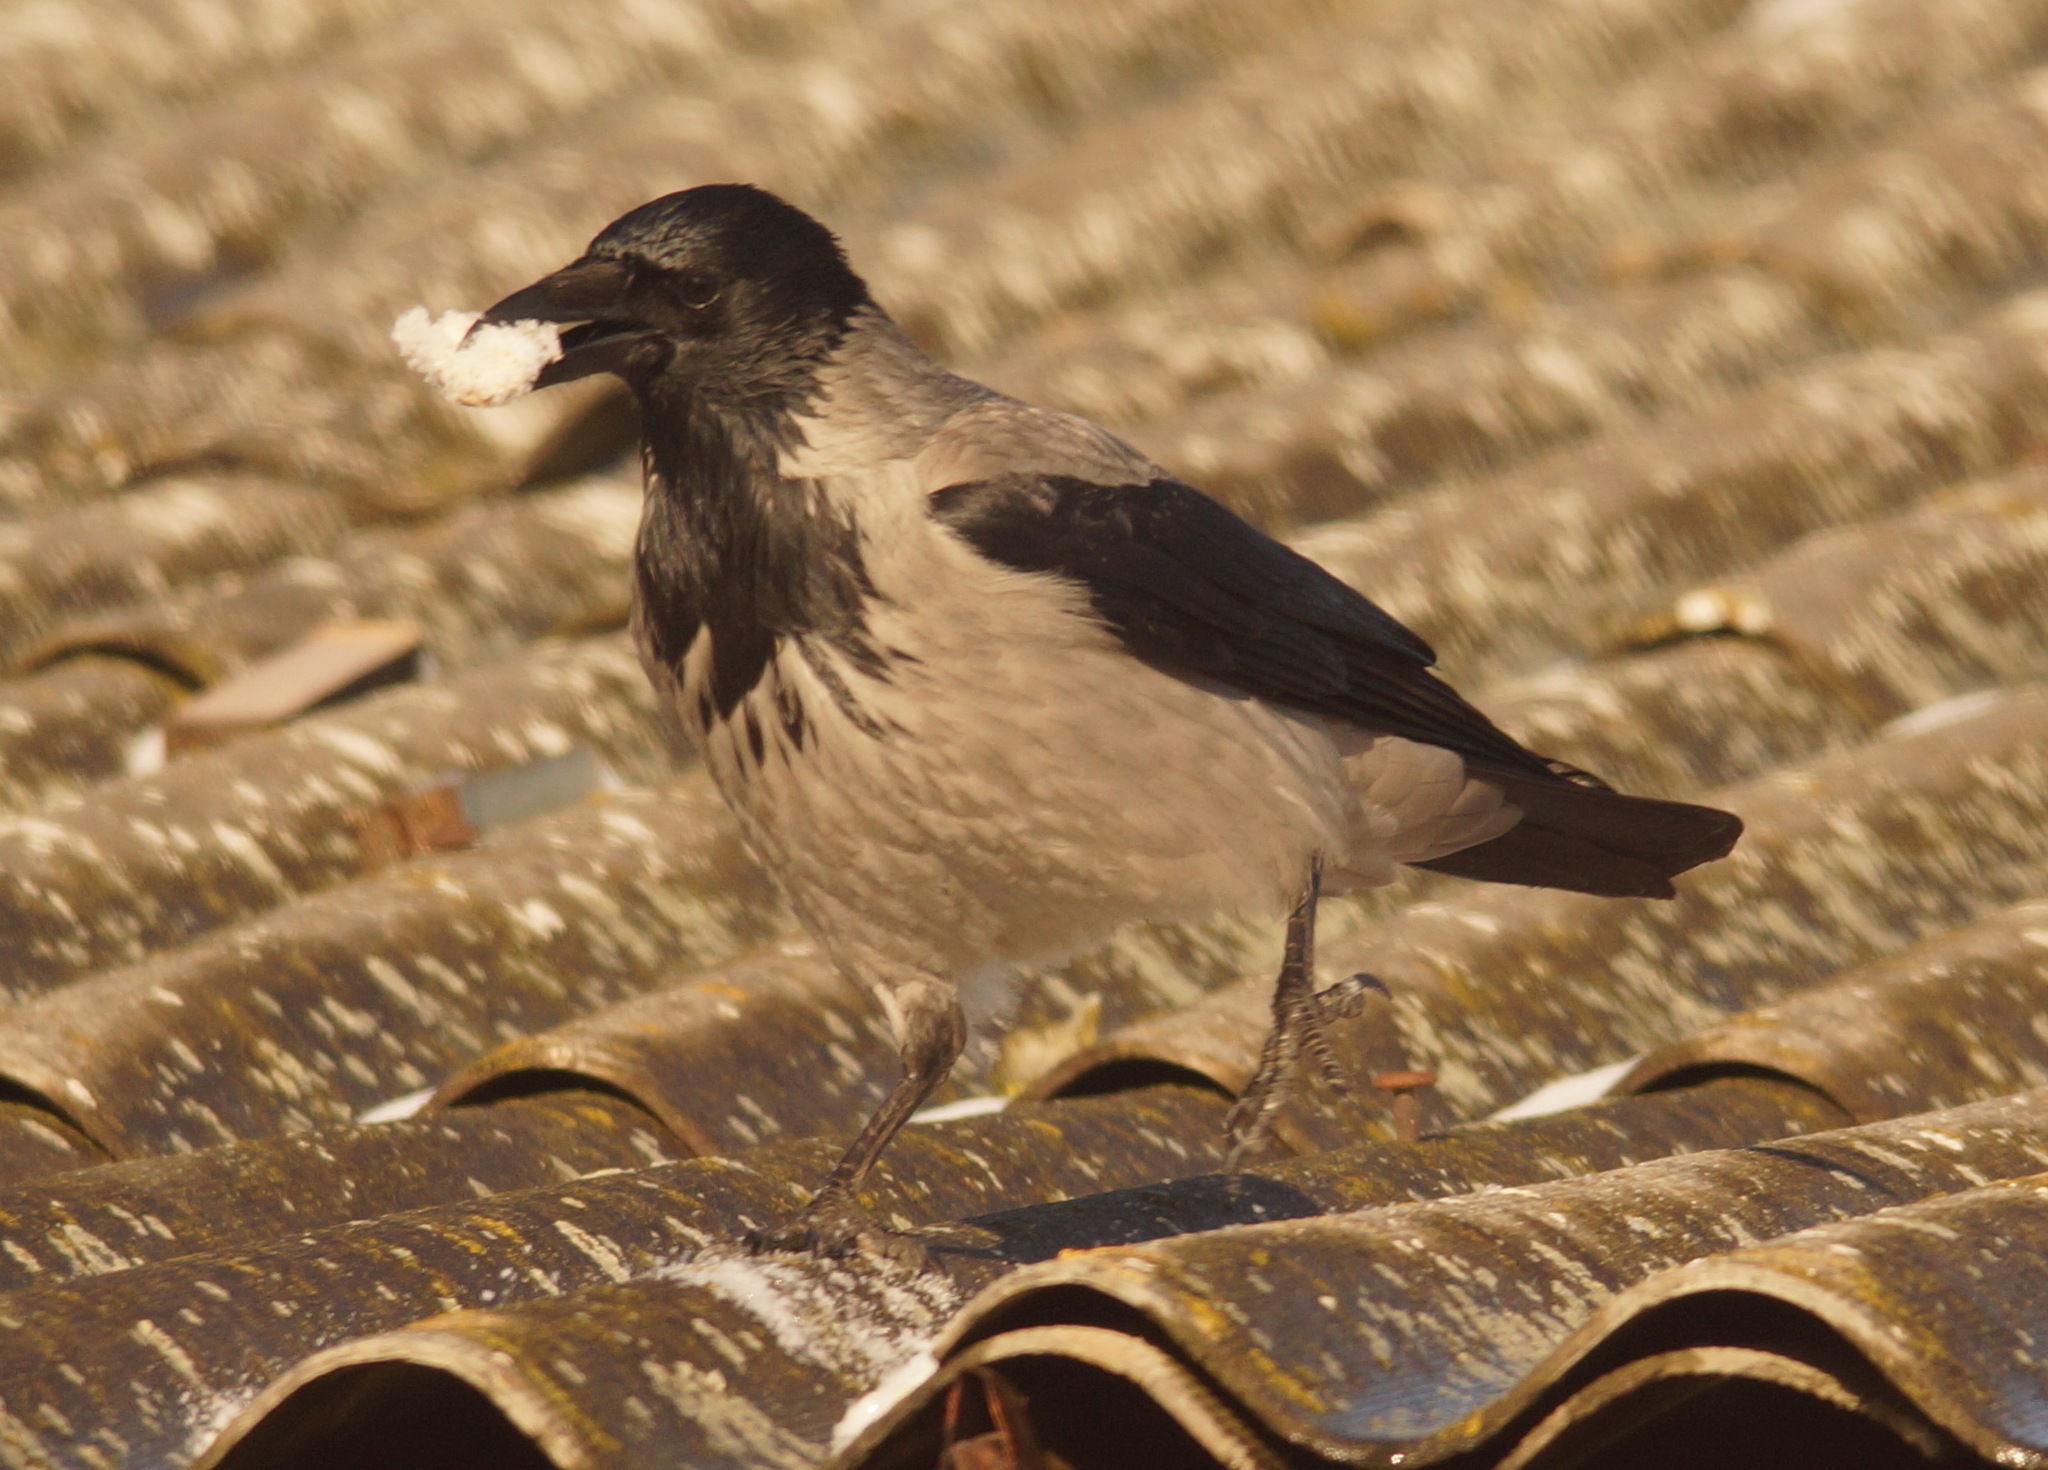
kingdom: Animalia
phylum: Chordata
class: Aves
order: Passeriformes
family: Corvidae
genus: Corvus
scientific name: Corvus cornix
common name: Hooded crow
